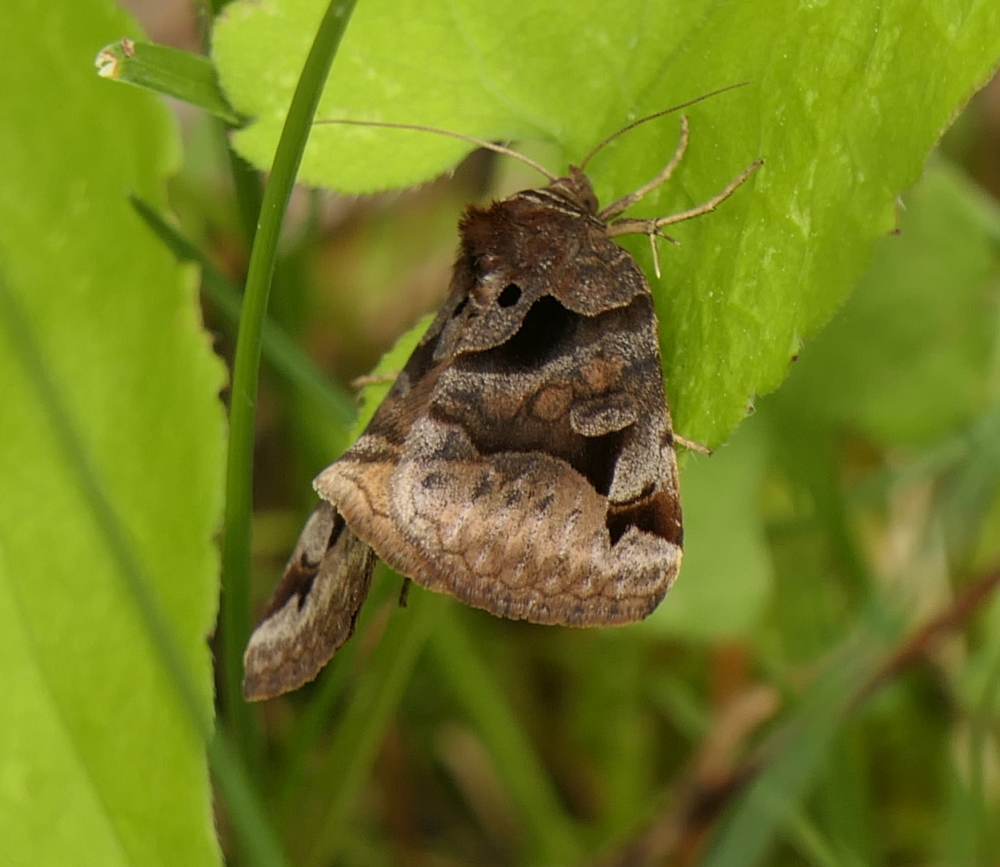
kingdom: Animalia
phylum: Arthropoda
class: Insecta
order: Lepidoptera
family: Erebidae
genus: Euclidia
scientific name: Euclidia cuspidea
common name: Toothed somberwing
